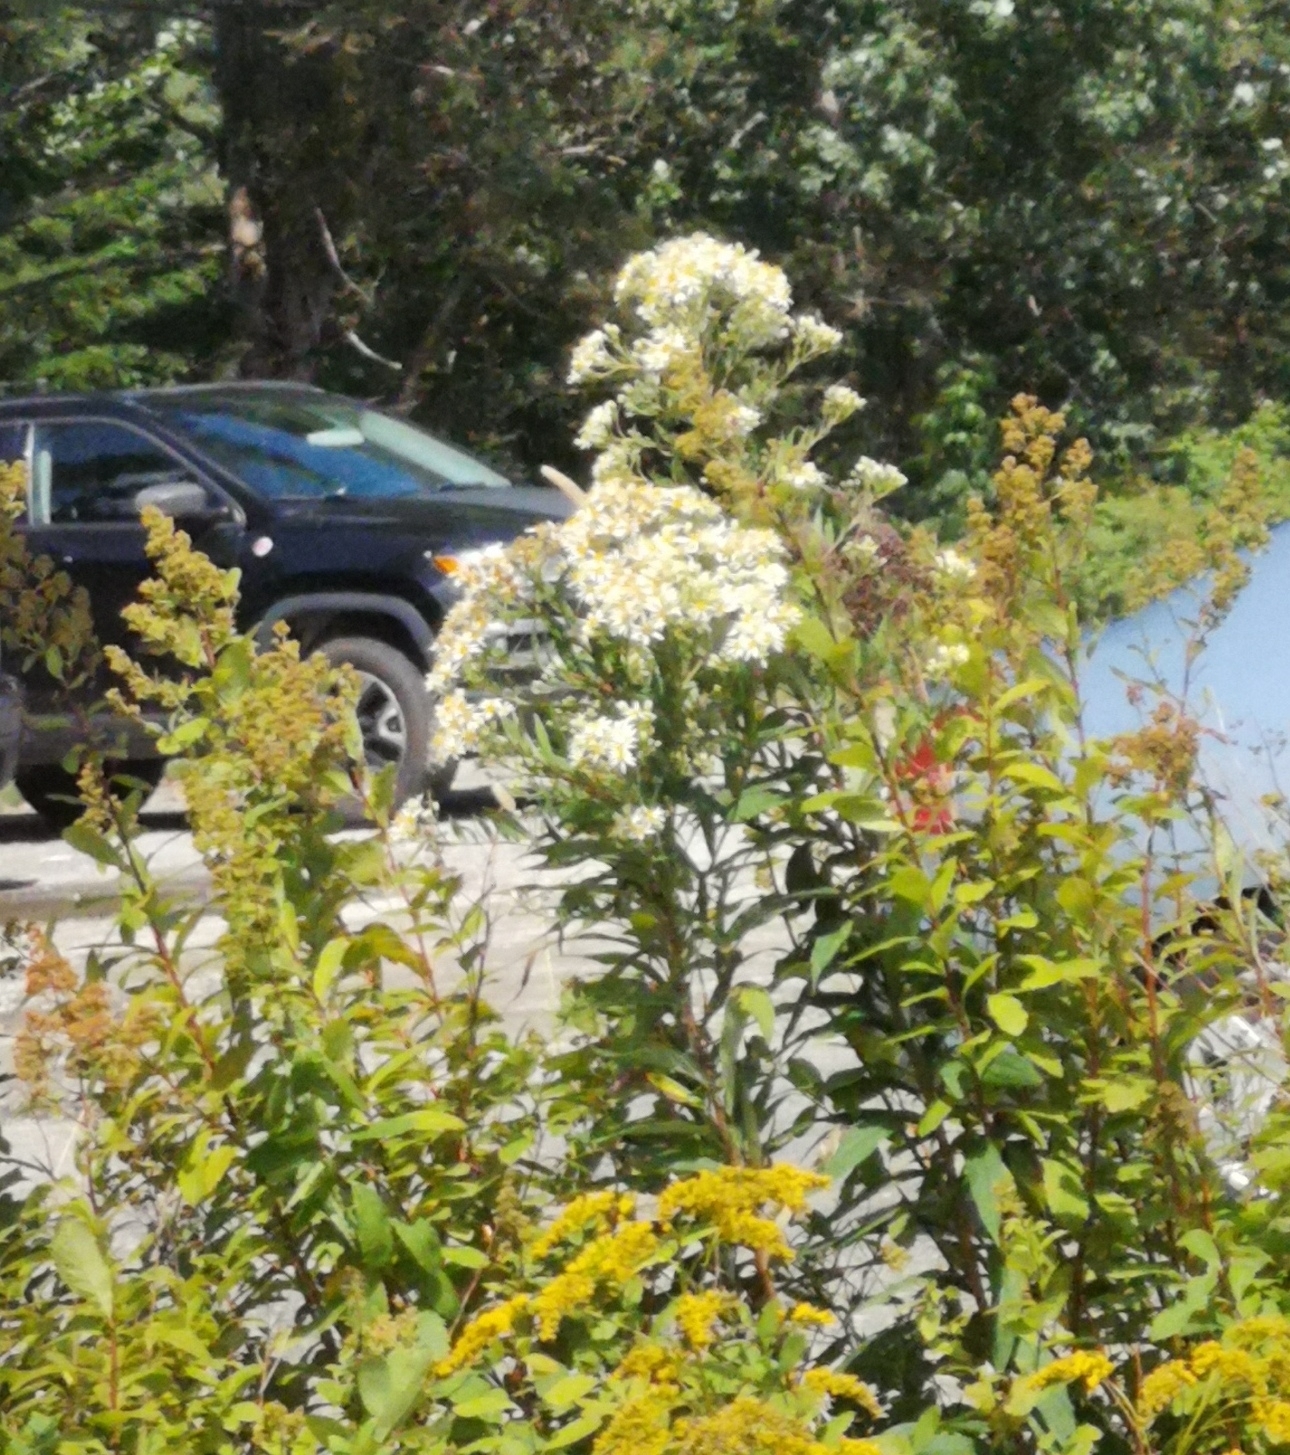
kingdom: Plantae
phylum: Tracheophyta
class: Magnoliopsida
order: Asterales
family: Asteraceae
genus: Doellingeria
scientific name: Doellingeria umbellata
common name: Flat-top white aster
